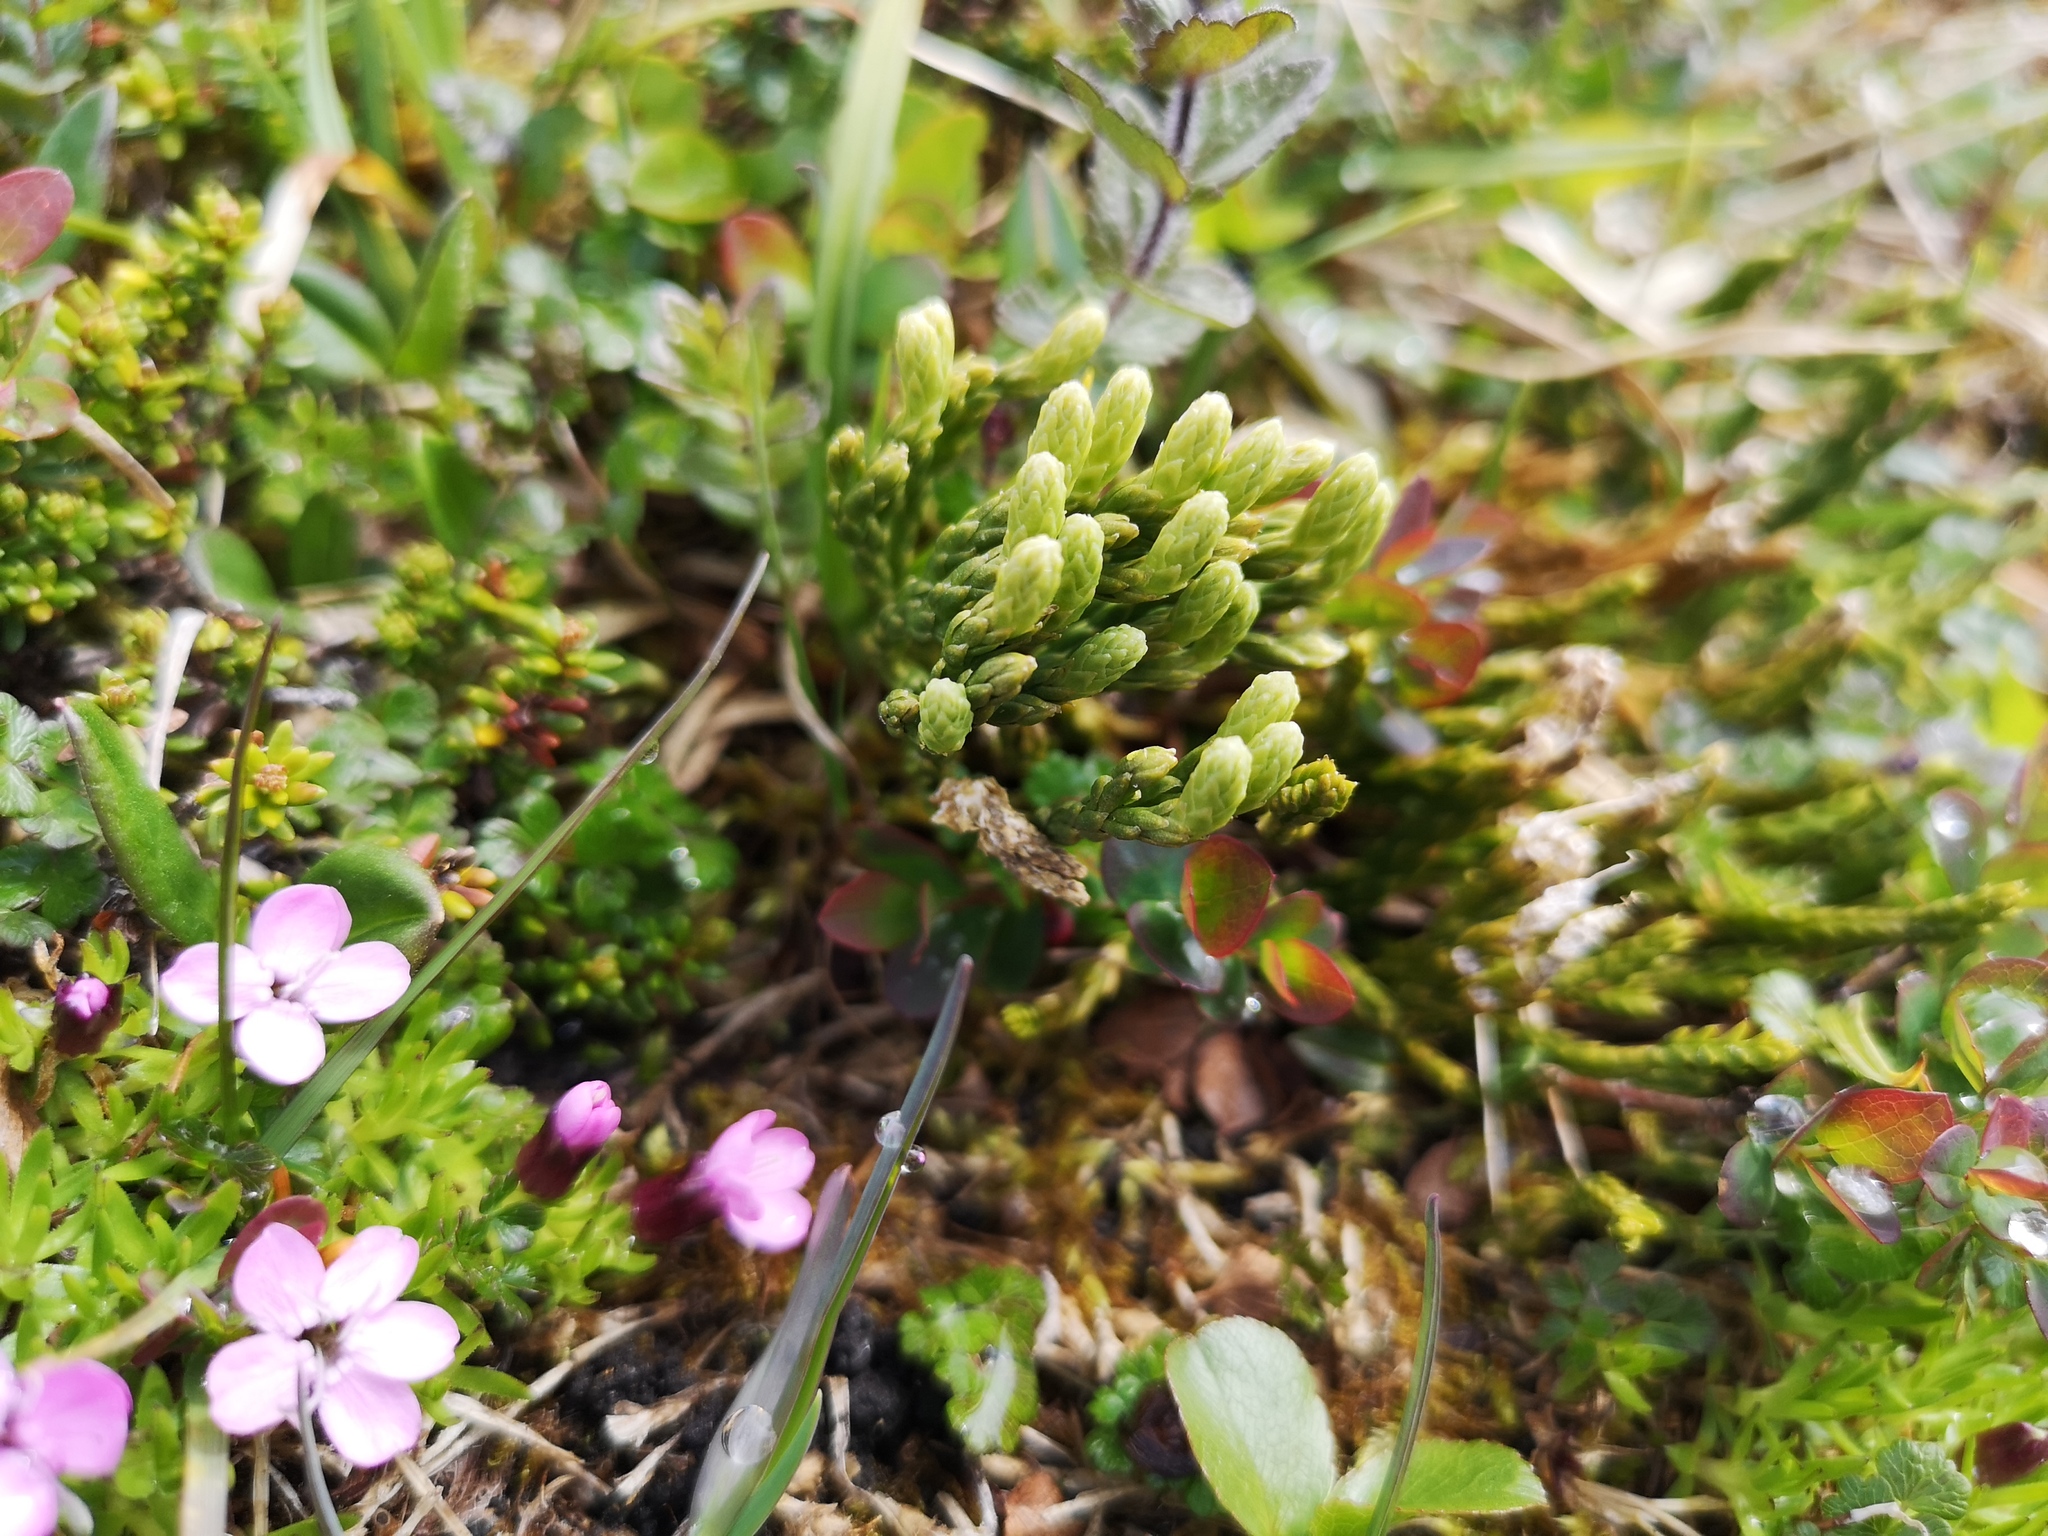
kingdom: Plantae
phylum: Tracheophyta
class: Lycopodiopsida
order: Lycopodiales
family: Lycopodiaceae
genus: Diphasiastrum
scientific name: Diphasiastrum alpinum
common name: Alpine clubmoss
